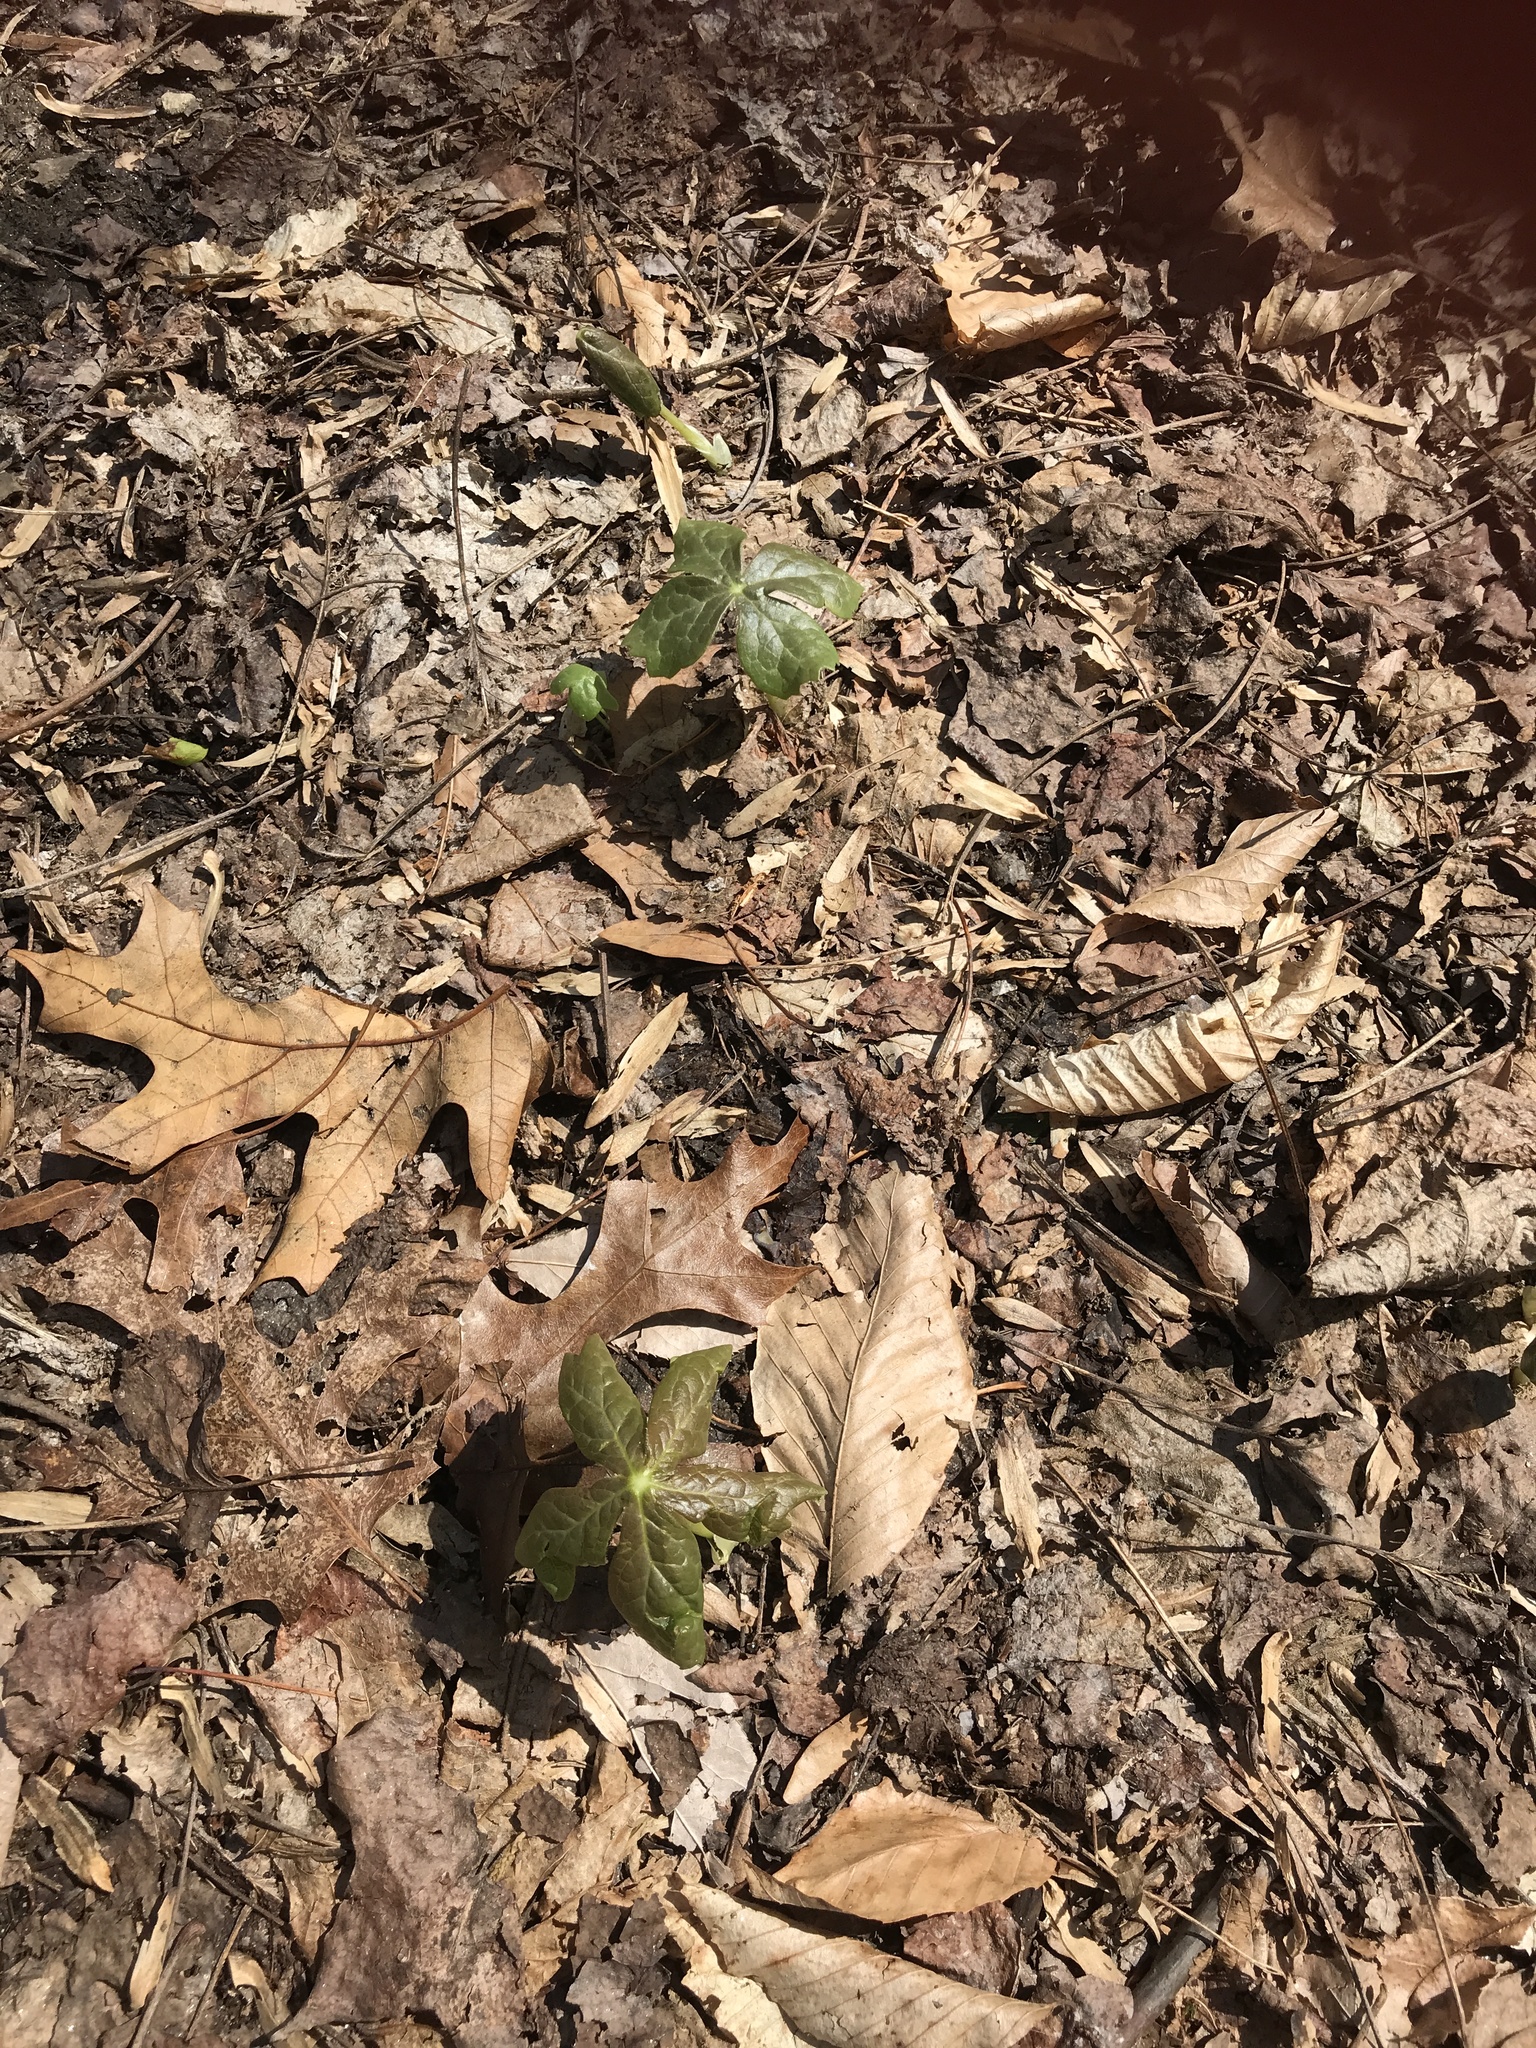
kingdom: Plantae
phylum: Tracheophyta
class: Magnoliopsida
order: Ranunculales
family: Berberidaceae
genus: Podophyllum
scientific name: Podophyllum peltatum
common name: Wild mandrake
